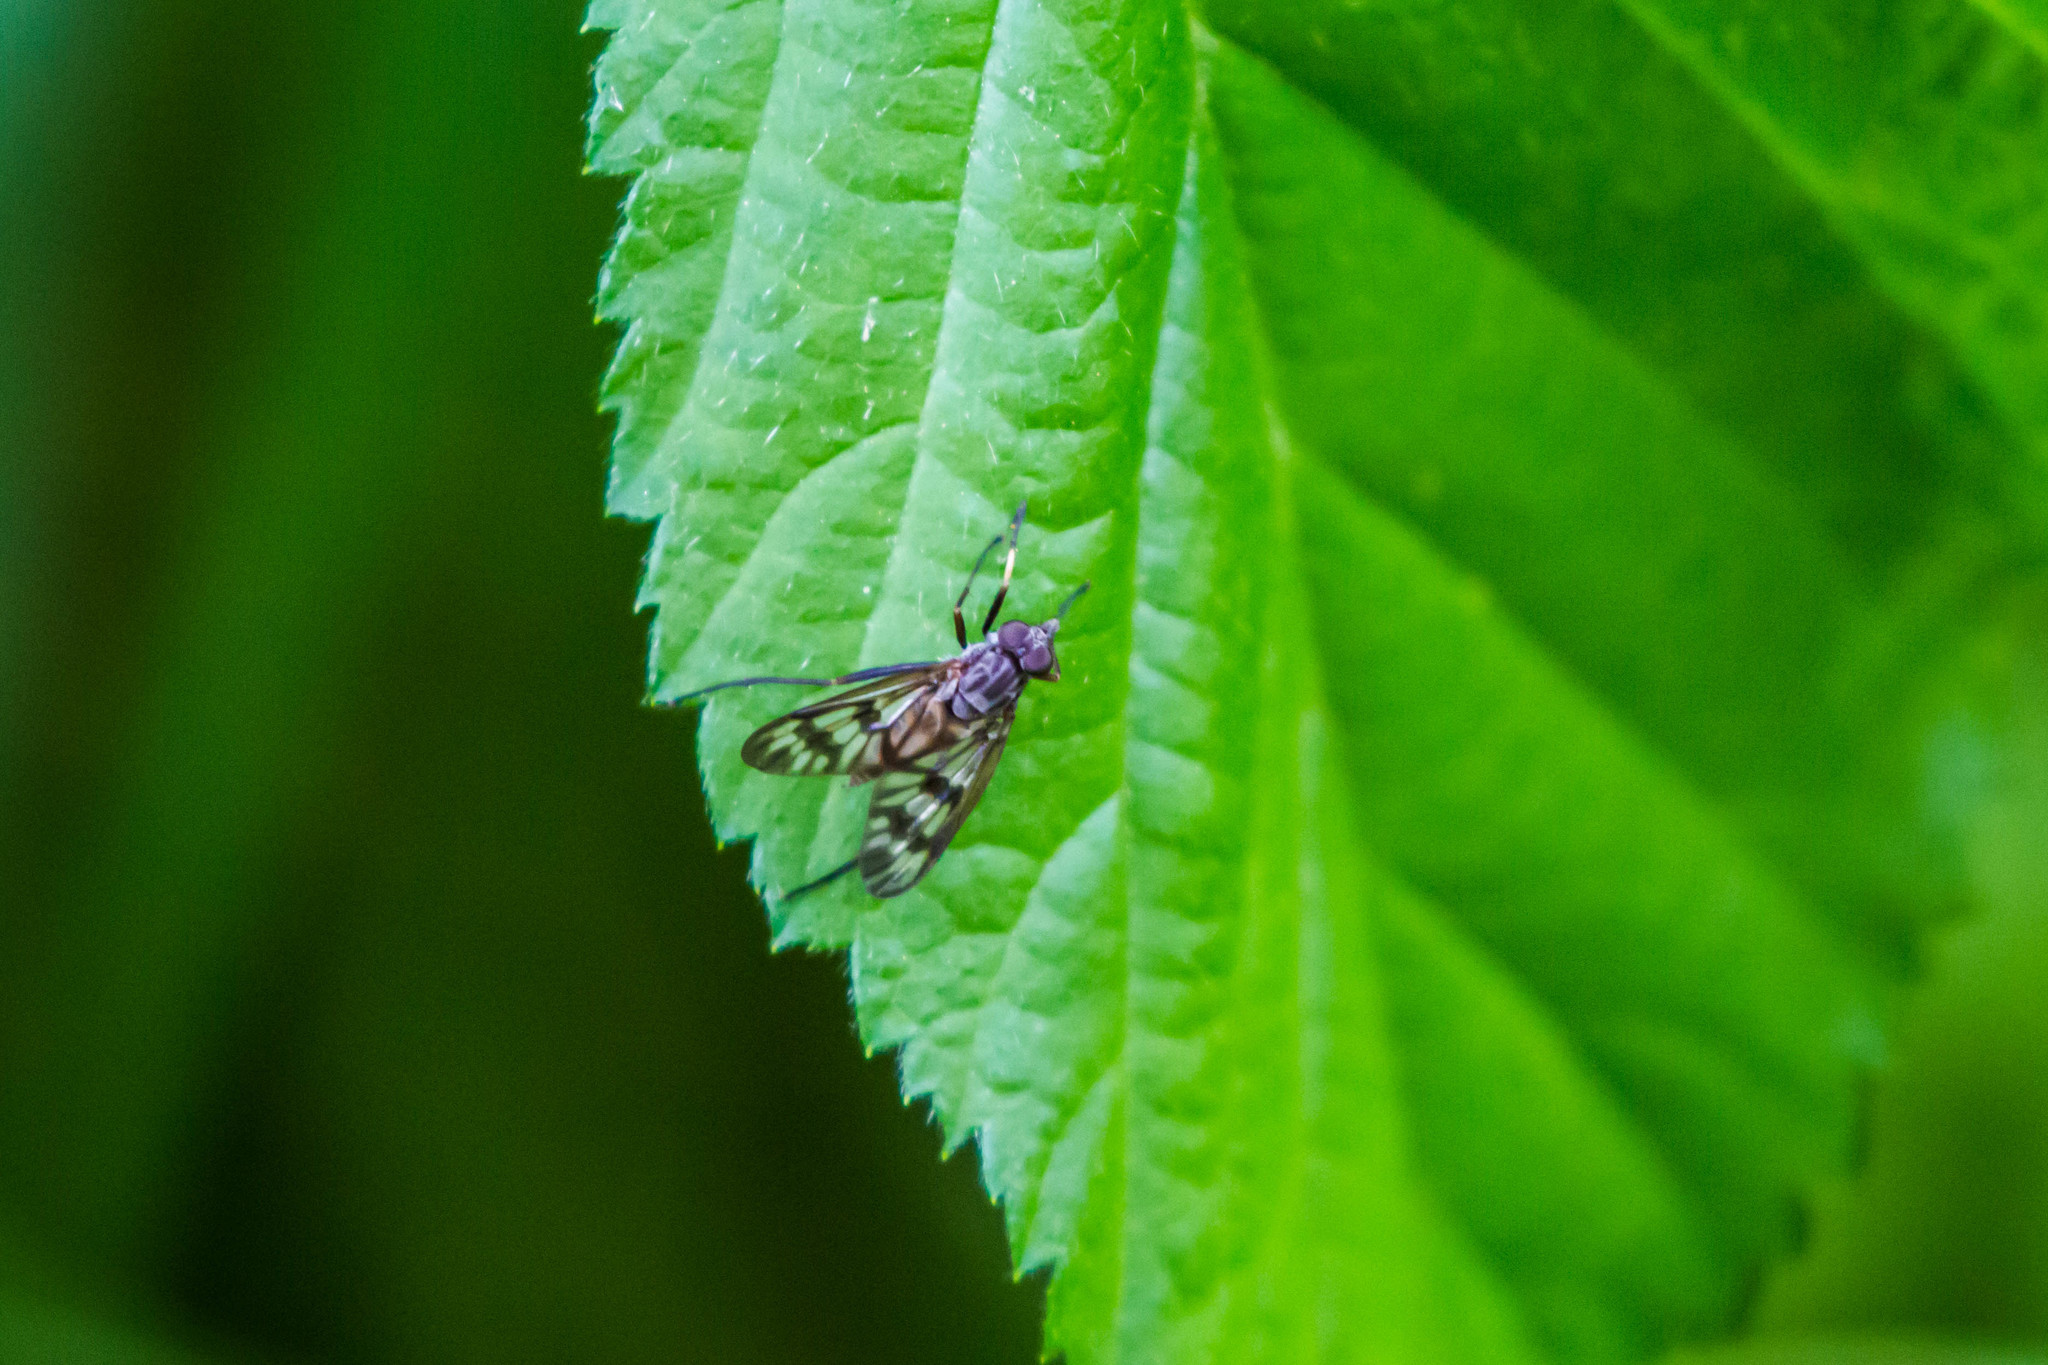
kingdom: Animalia
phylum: Arthropoda
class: Insecta
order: Diptera
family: Rhagionidae
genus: Rhagio
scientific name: Rhagio mystaceus
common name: Common snipe fly
